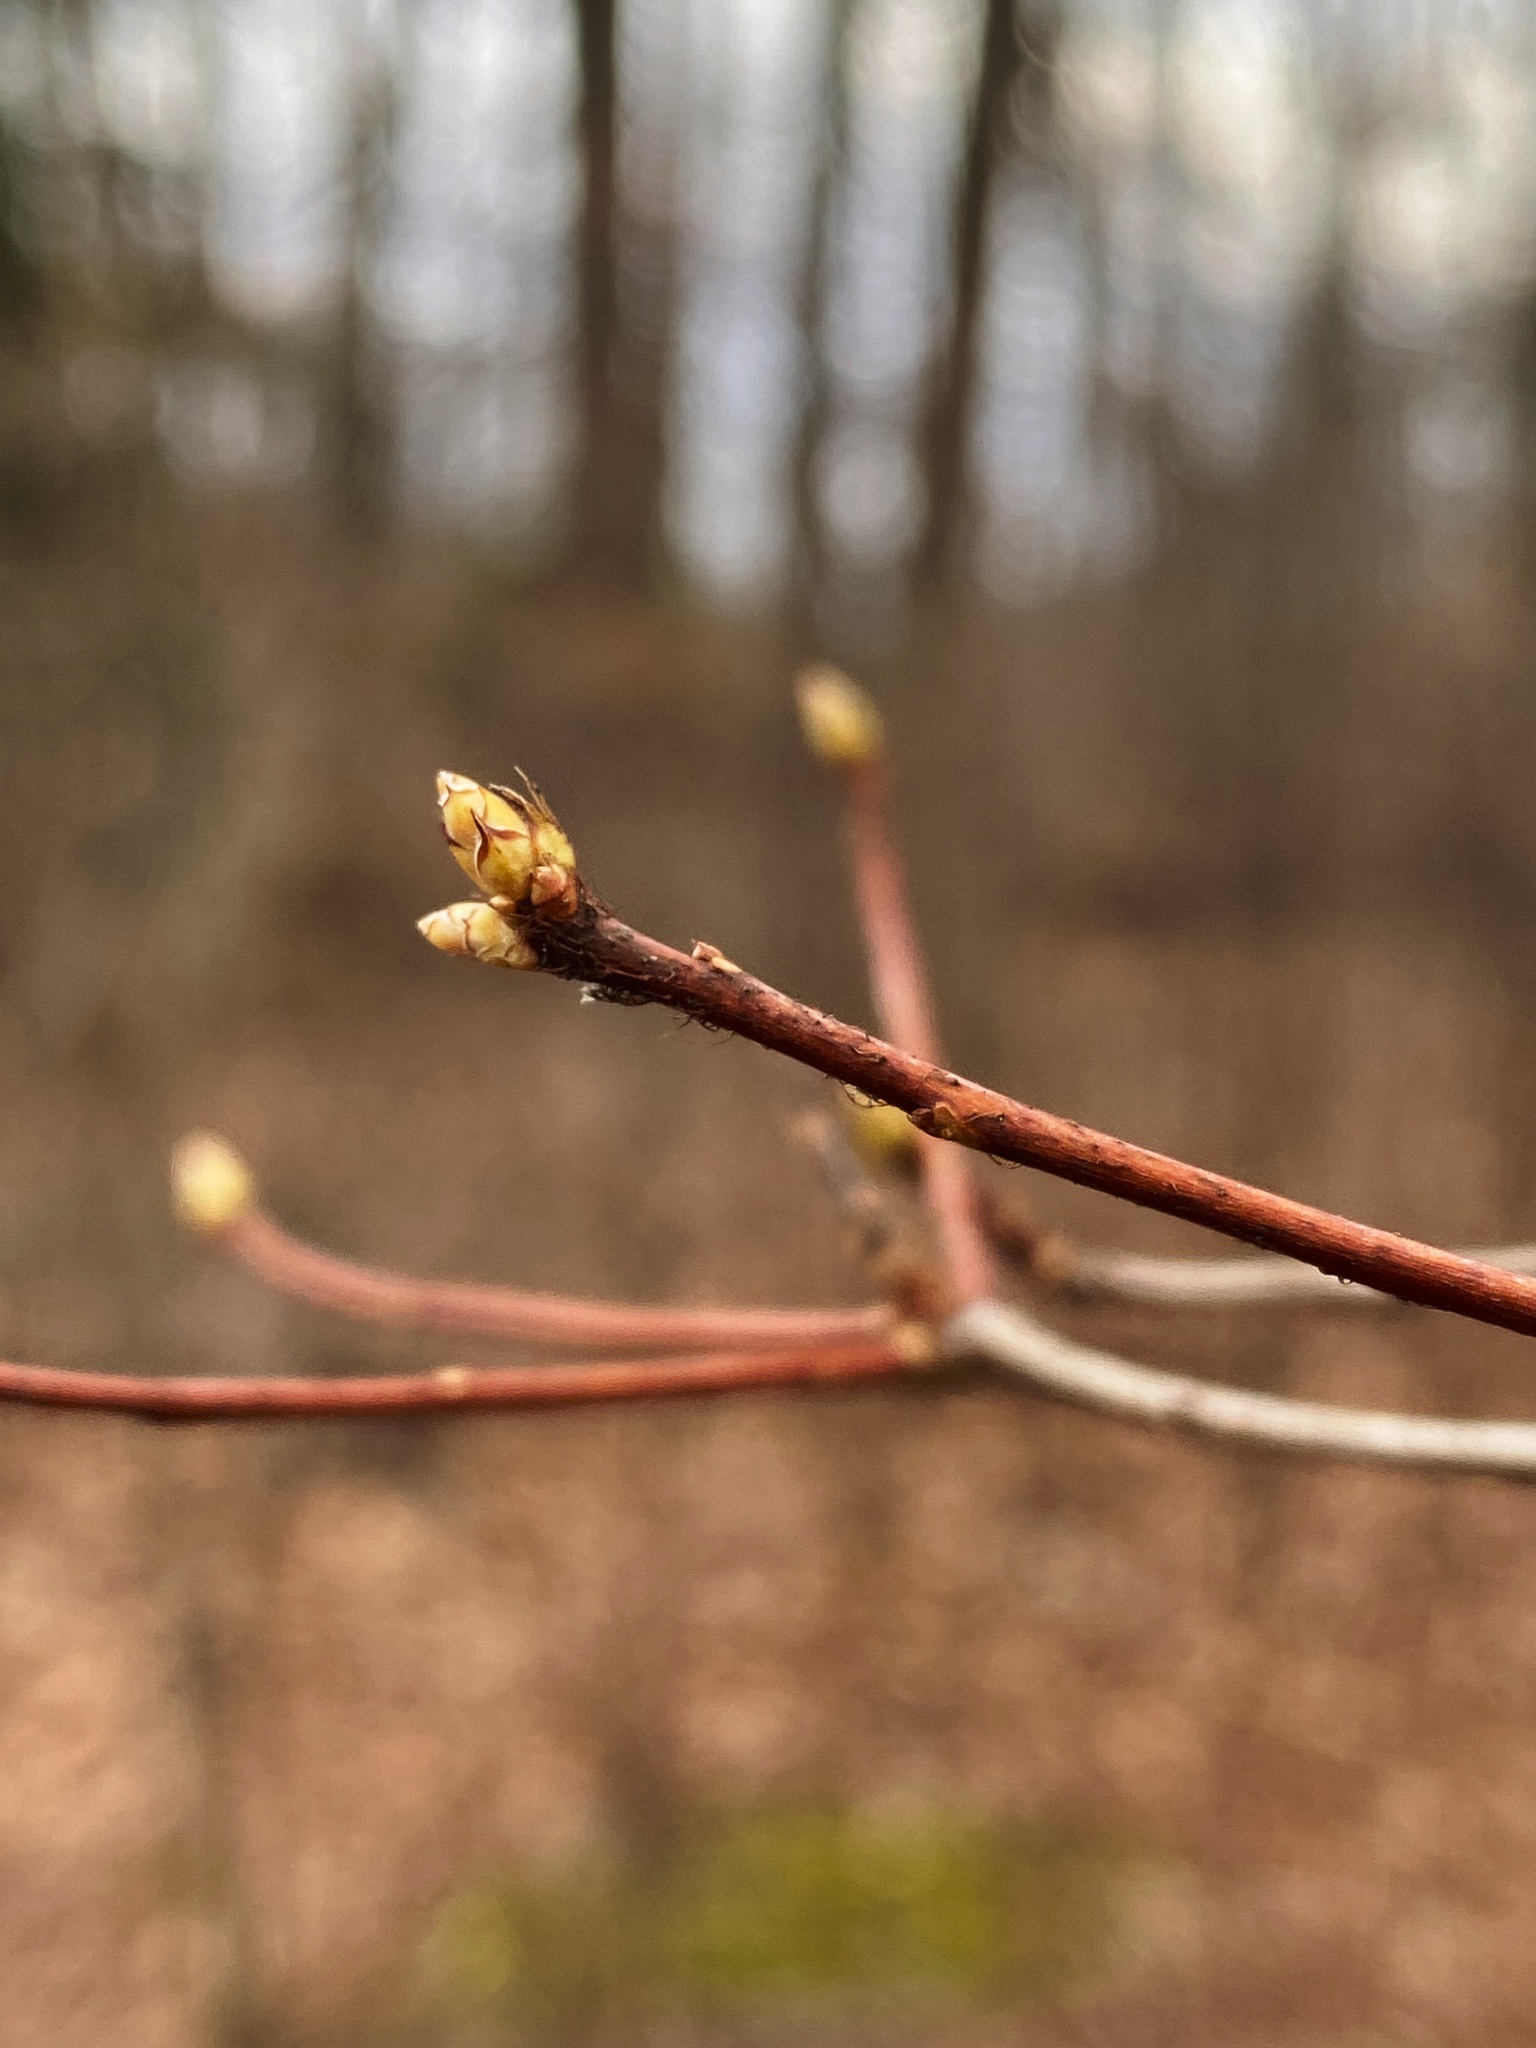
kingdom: Plantae
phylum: Tracheophyta
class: Magnoliopsida
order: Ericales
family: Ericaceae
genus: Rhododendron
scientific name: Rhododendron viscosum
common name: Clammy azalea
